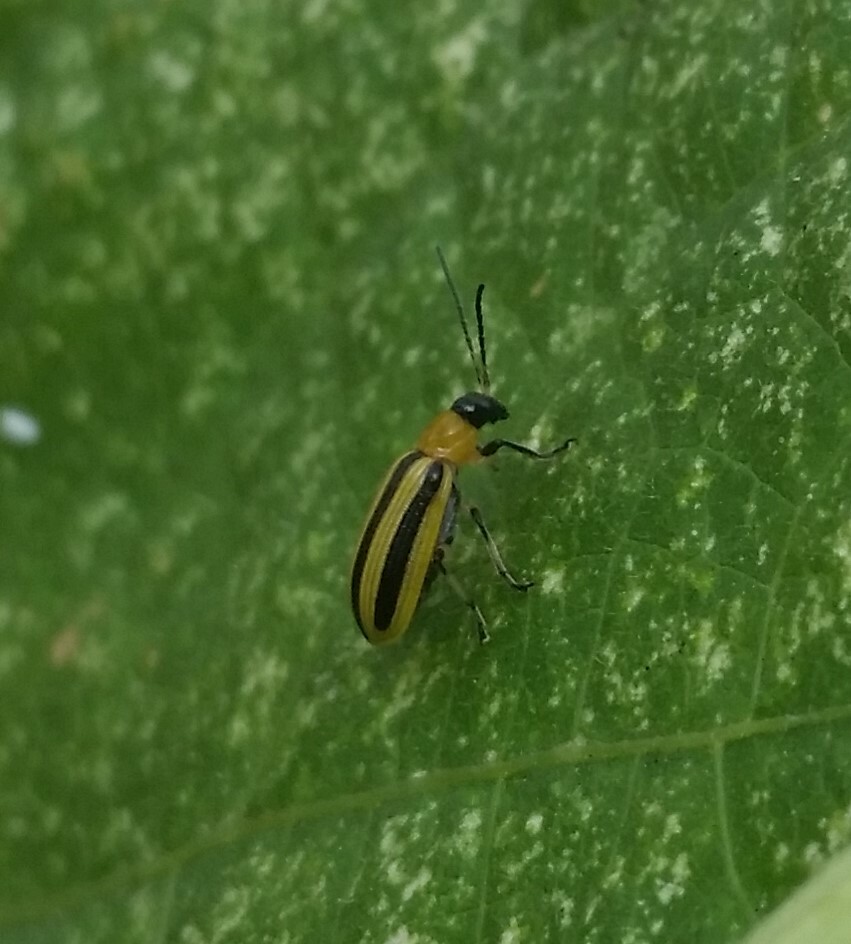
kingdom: Animalia
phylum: Arthropoda
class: Insecta
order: Coleoptera
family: Chrysomelidae
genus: Acalymma
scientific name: Acalymma vittatum
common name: Striped cucumber beetle
